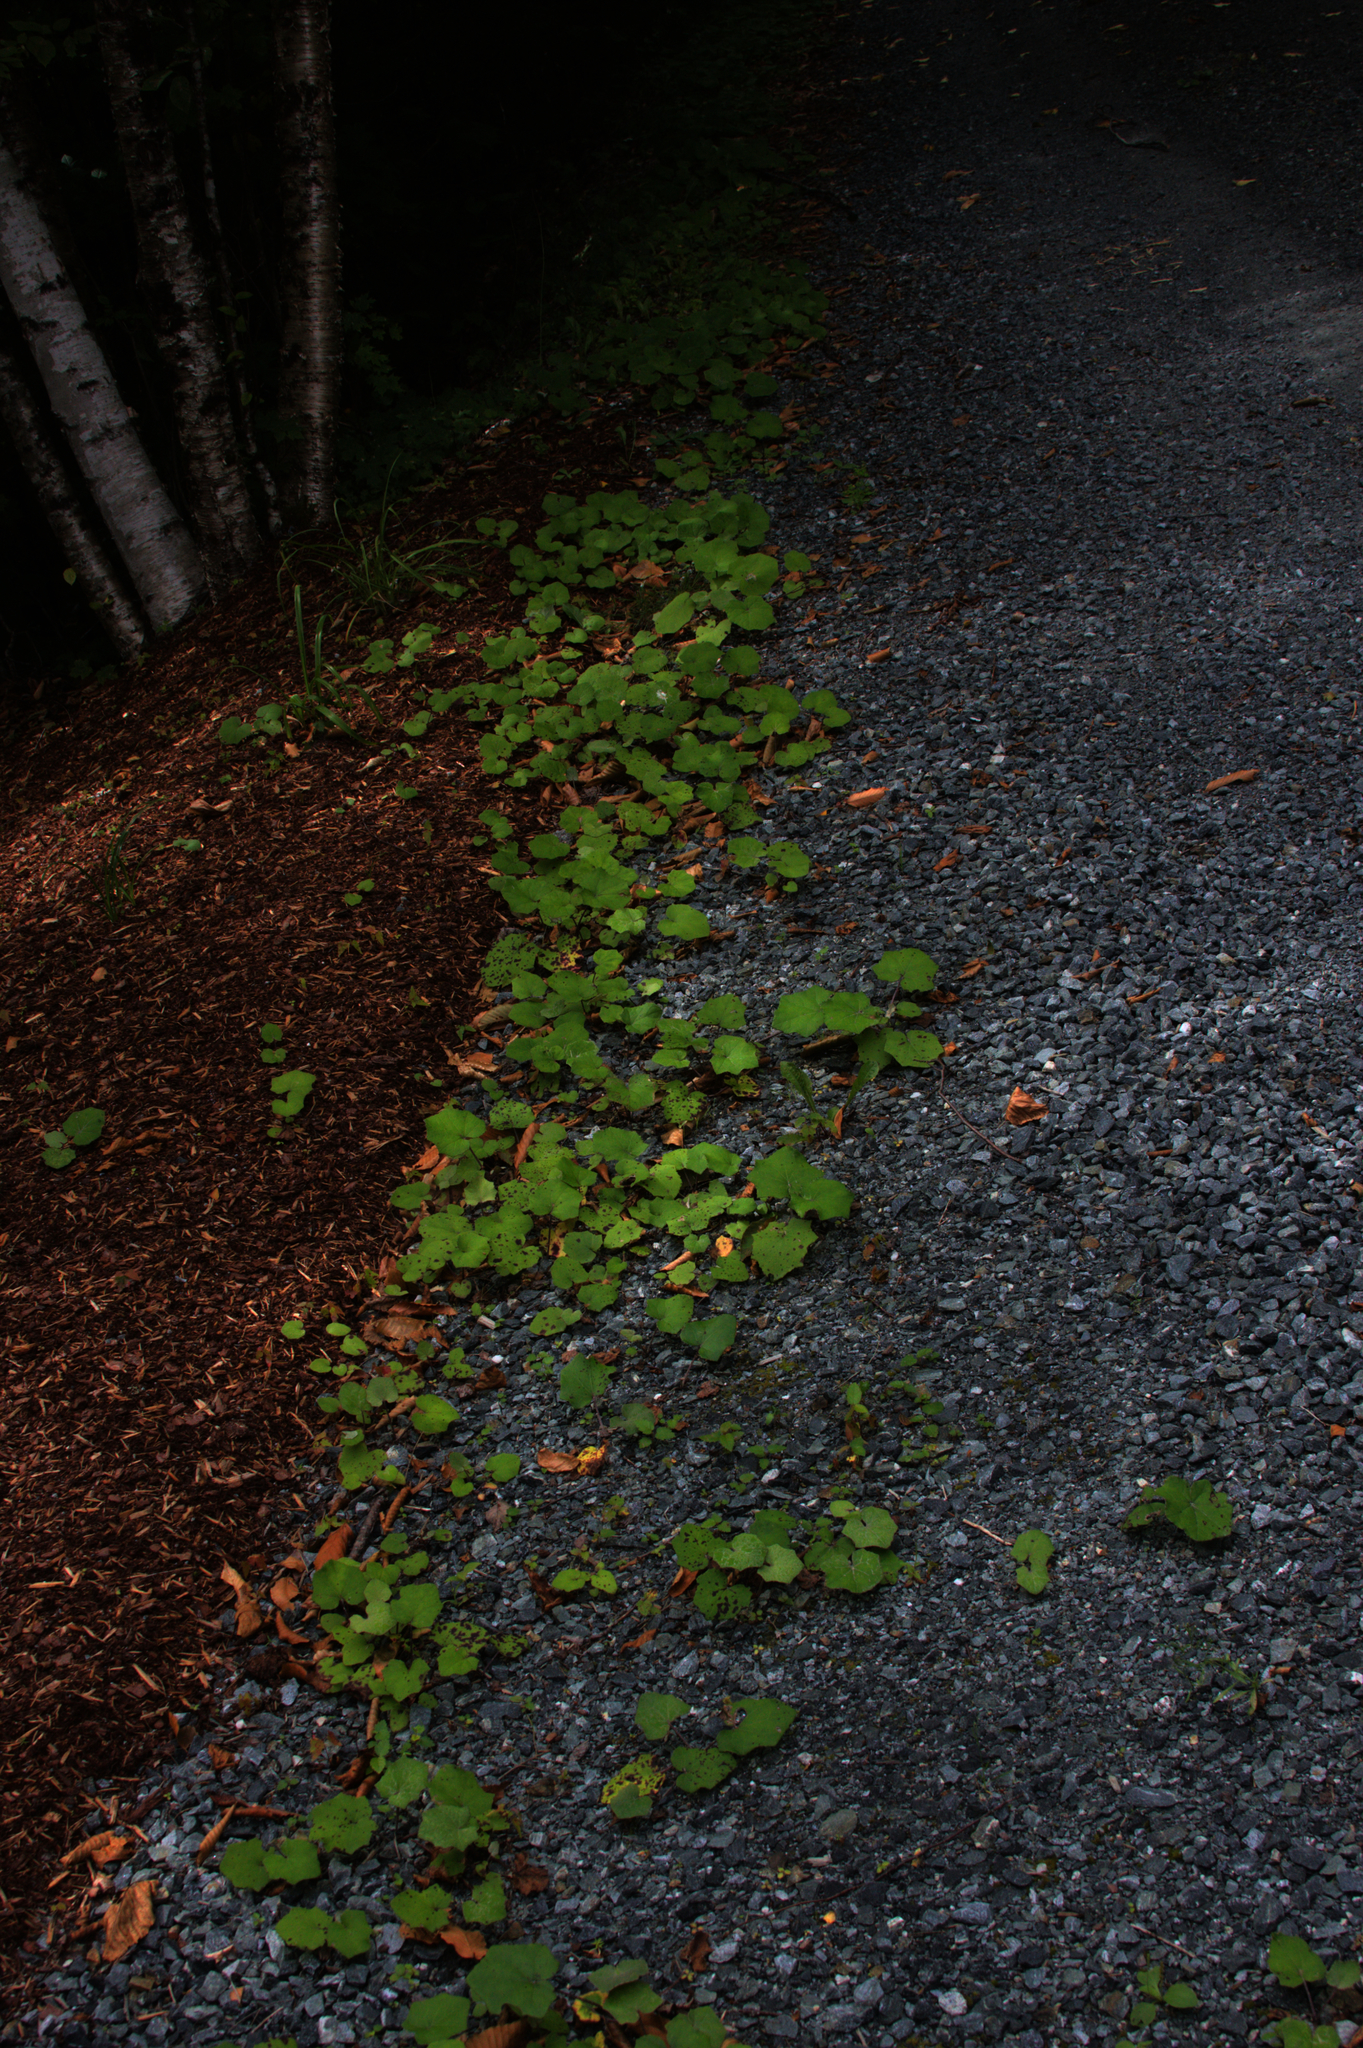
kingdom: Plantae
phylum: Tracheophyta
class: Magnoliopsida
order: Asterales
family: Asteraceae
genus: Tussilago
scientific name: Tussilago farfara
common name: Coltsfoot
